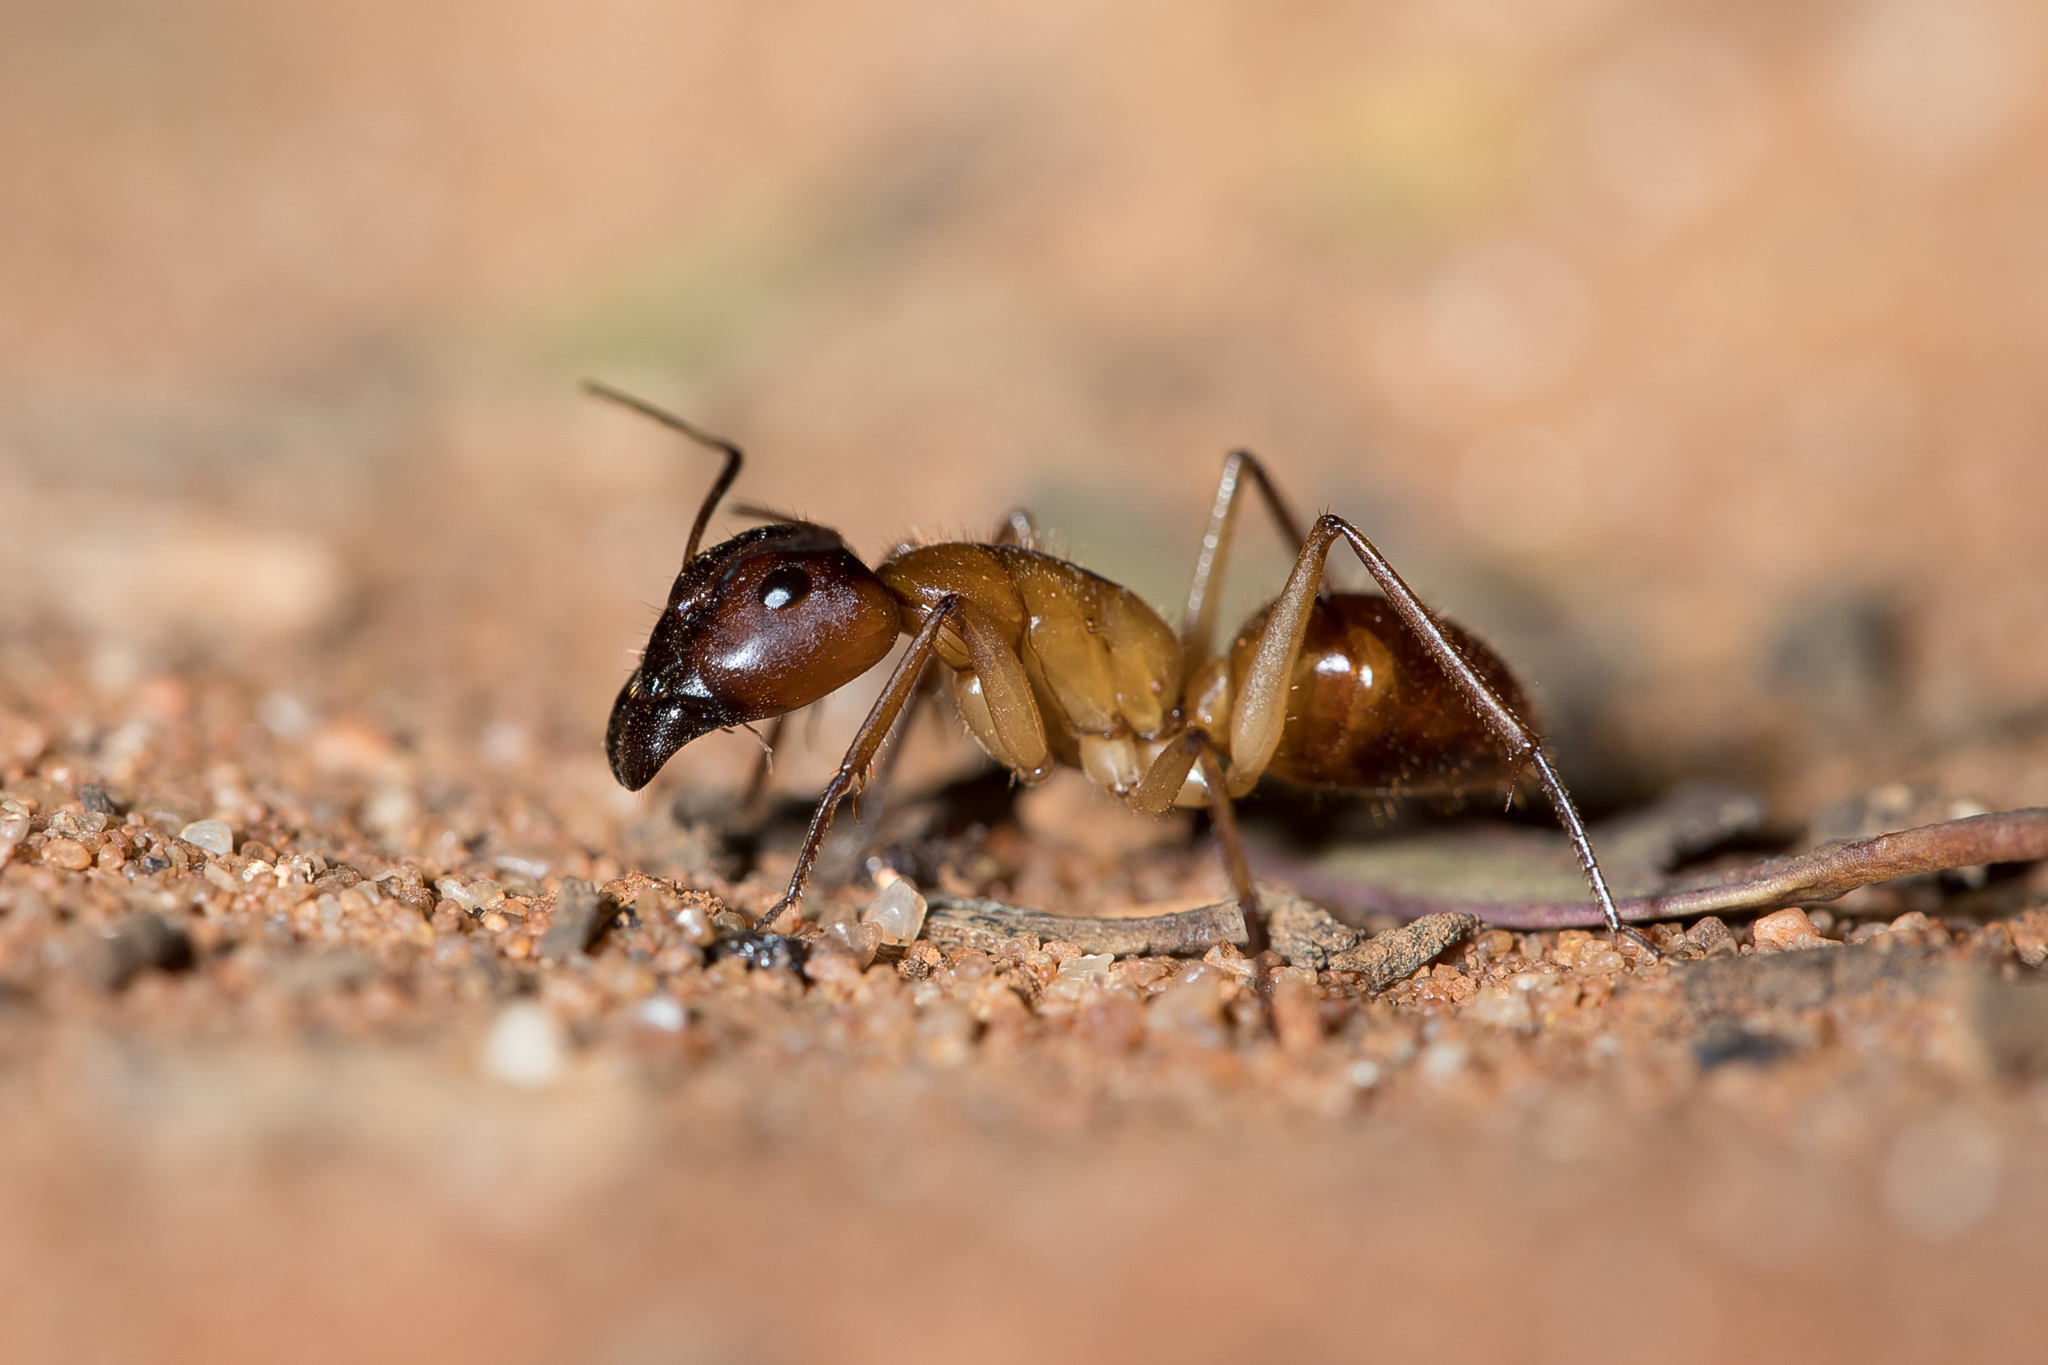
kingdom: Animalia
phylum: Arthropoda
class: Insecta
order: Hymenoptera
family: Formicidae
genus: Camponotus
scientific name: Camponotus nigriceps
